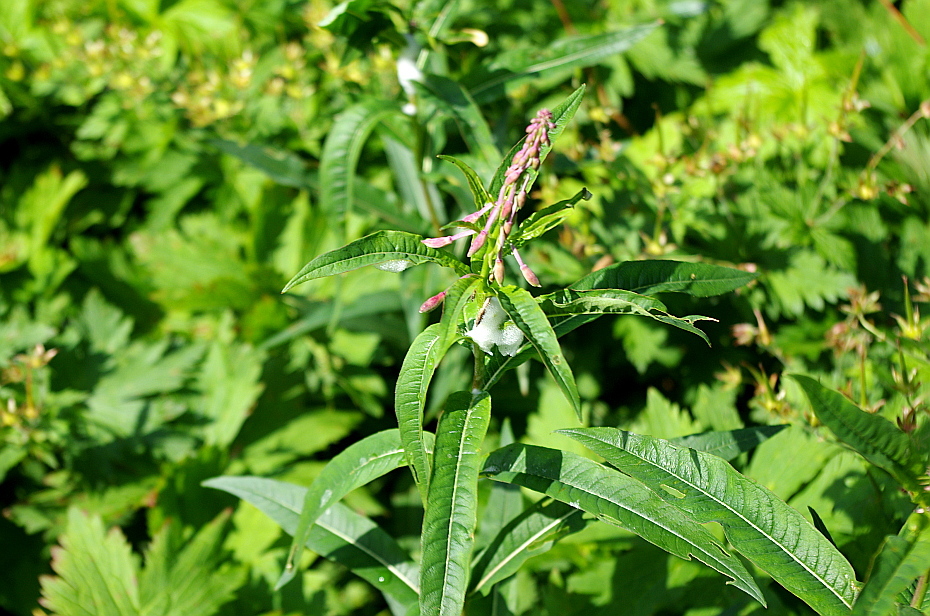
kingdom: Plantae
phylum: Tracheophyta
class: Magnoliopsida
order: Myrtales
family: Onagraceae
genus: Chamaenerion
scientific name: Chamaenerion angustifolium
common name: Fireweed
